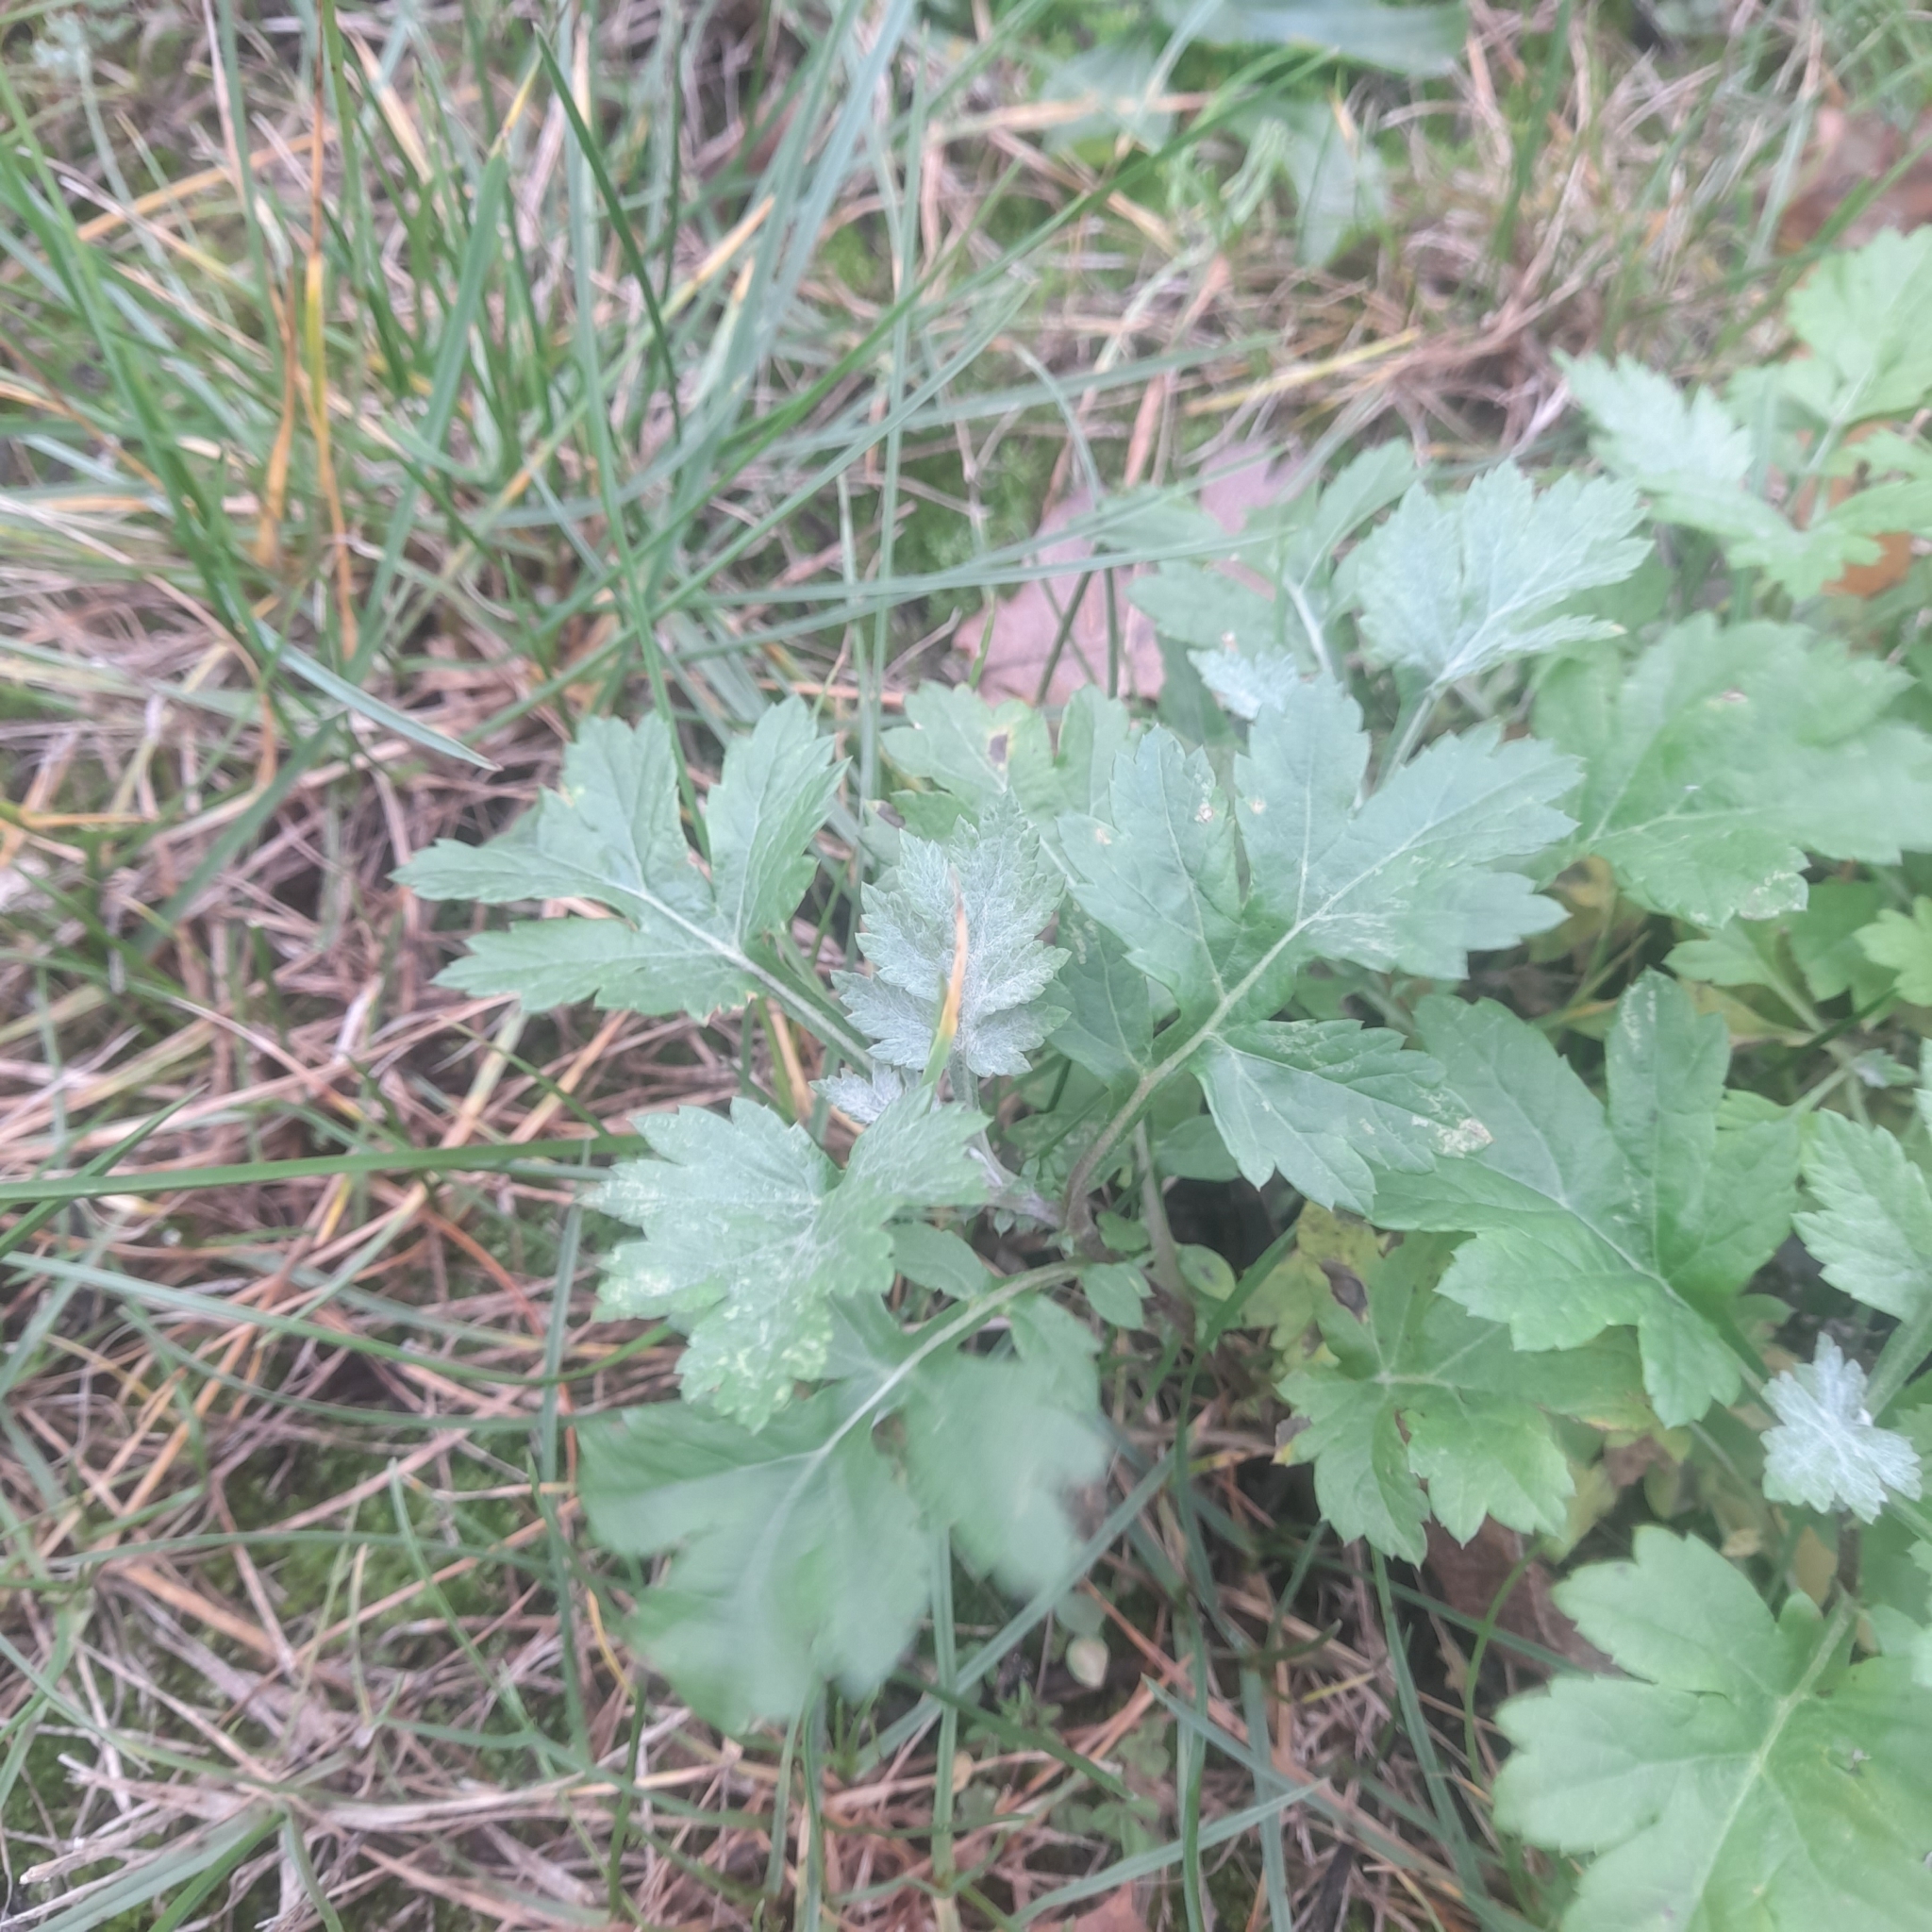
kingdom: Plantae
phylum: Tracheophyta
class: Magnoliopsida
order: Asterales
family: Asteraceae
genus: Artemisia
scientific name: Artemisia vulgaris
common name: Mugwort
